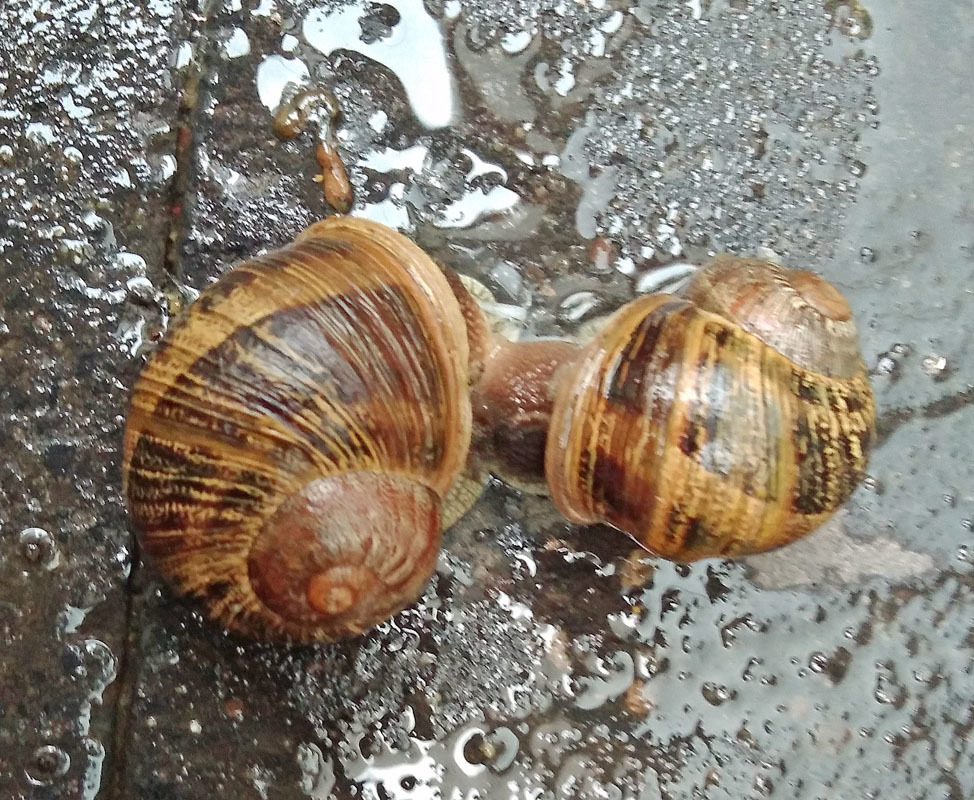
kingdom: Animalia
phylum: Mollusca
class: Gastropoda
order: Stylommatophora
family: Helicidae
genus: Cornu
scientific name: Cornu aspersum
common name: Brown garden snail
